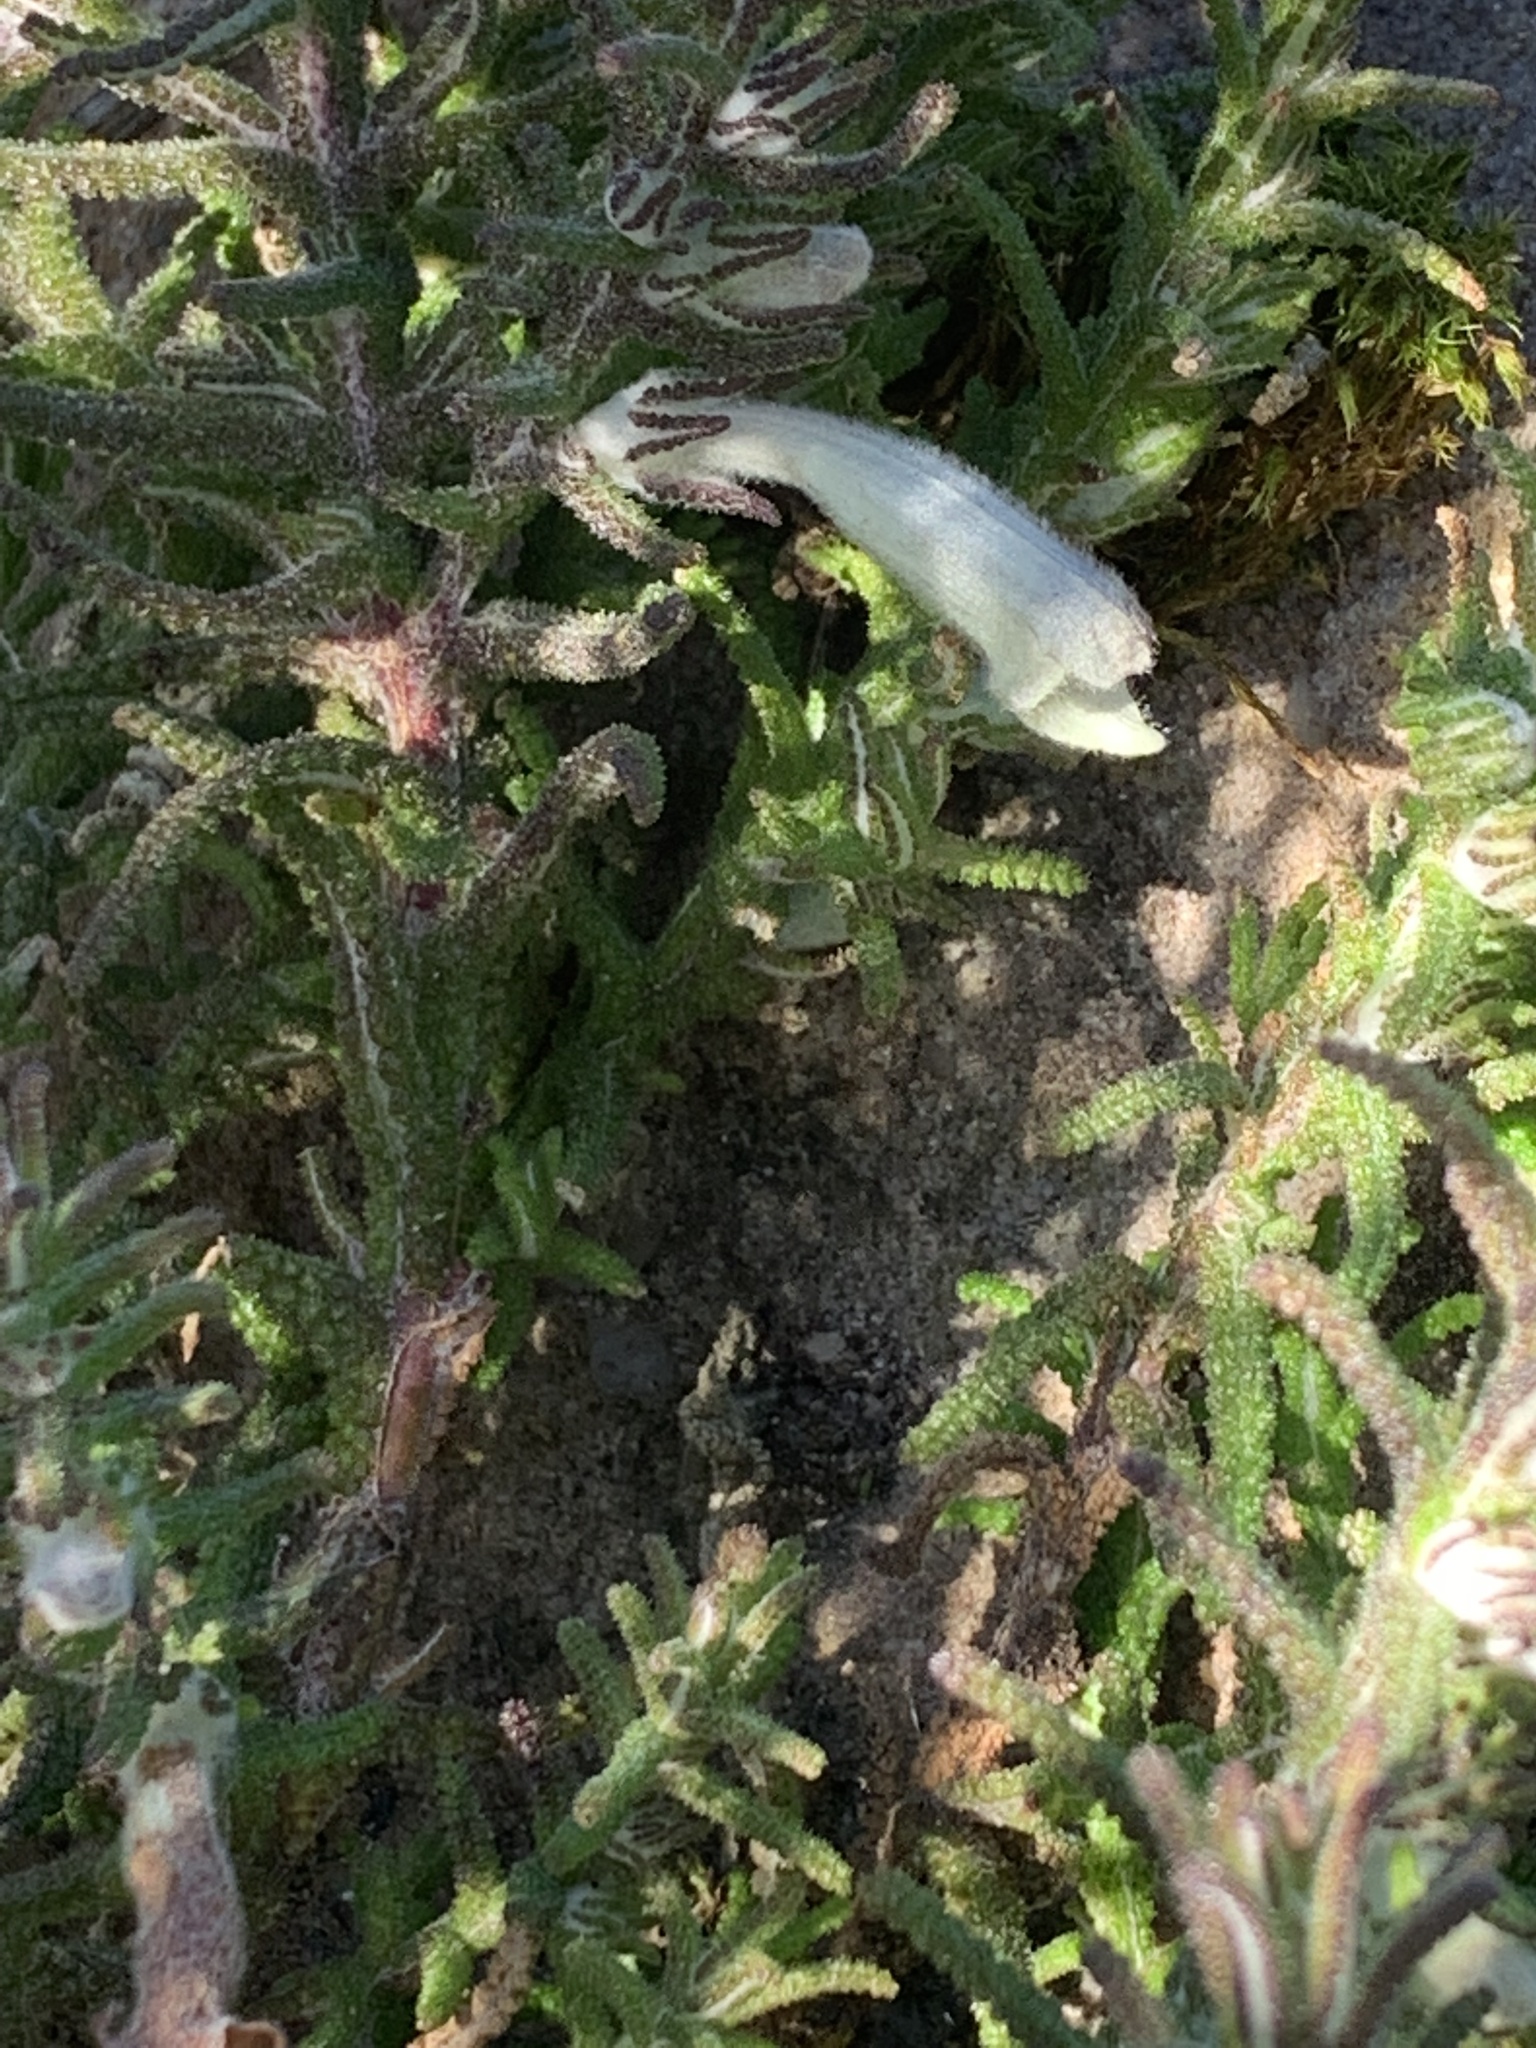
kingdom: Plantae
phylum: Tracheophyta
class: Magnoliopsida
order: Lamiales
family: Lamiaceae
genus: Chloanthes
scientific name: Chloanthes stoechadis
